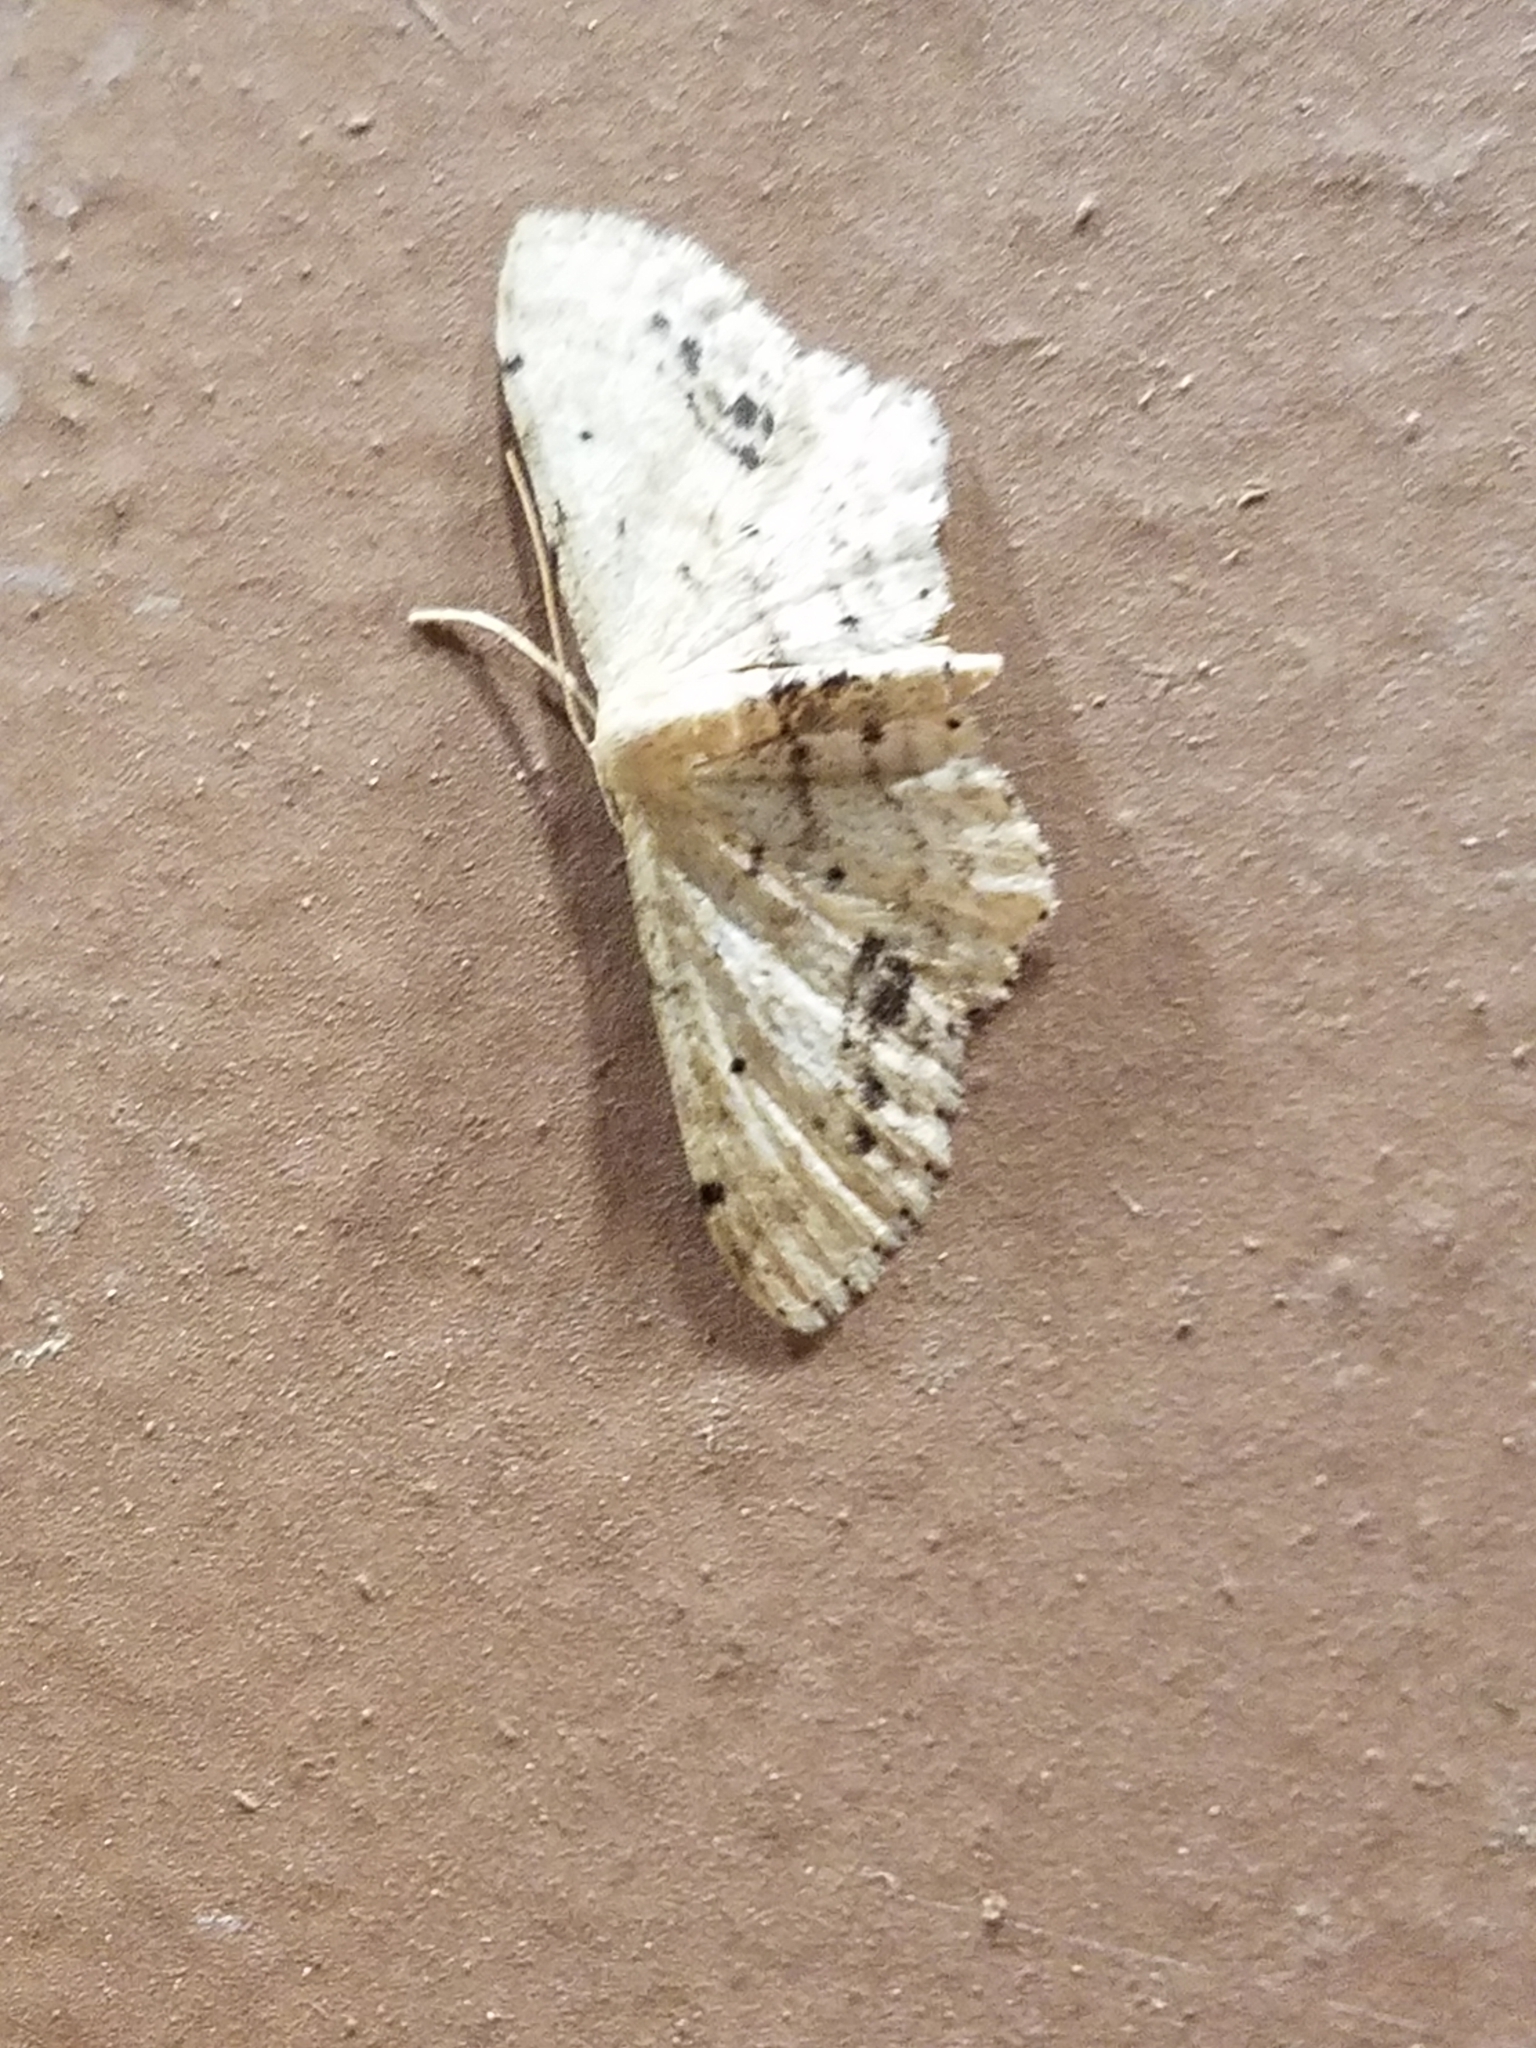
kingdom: Animalia
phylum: Arthropoda
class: Insecta
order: Lepidoptera
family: Geometridae
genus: Idaea
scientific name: Idaea dimidiata
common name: Single-dotted wave
